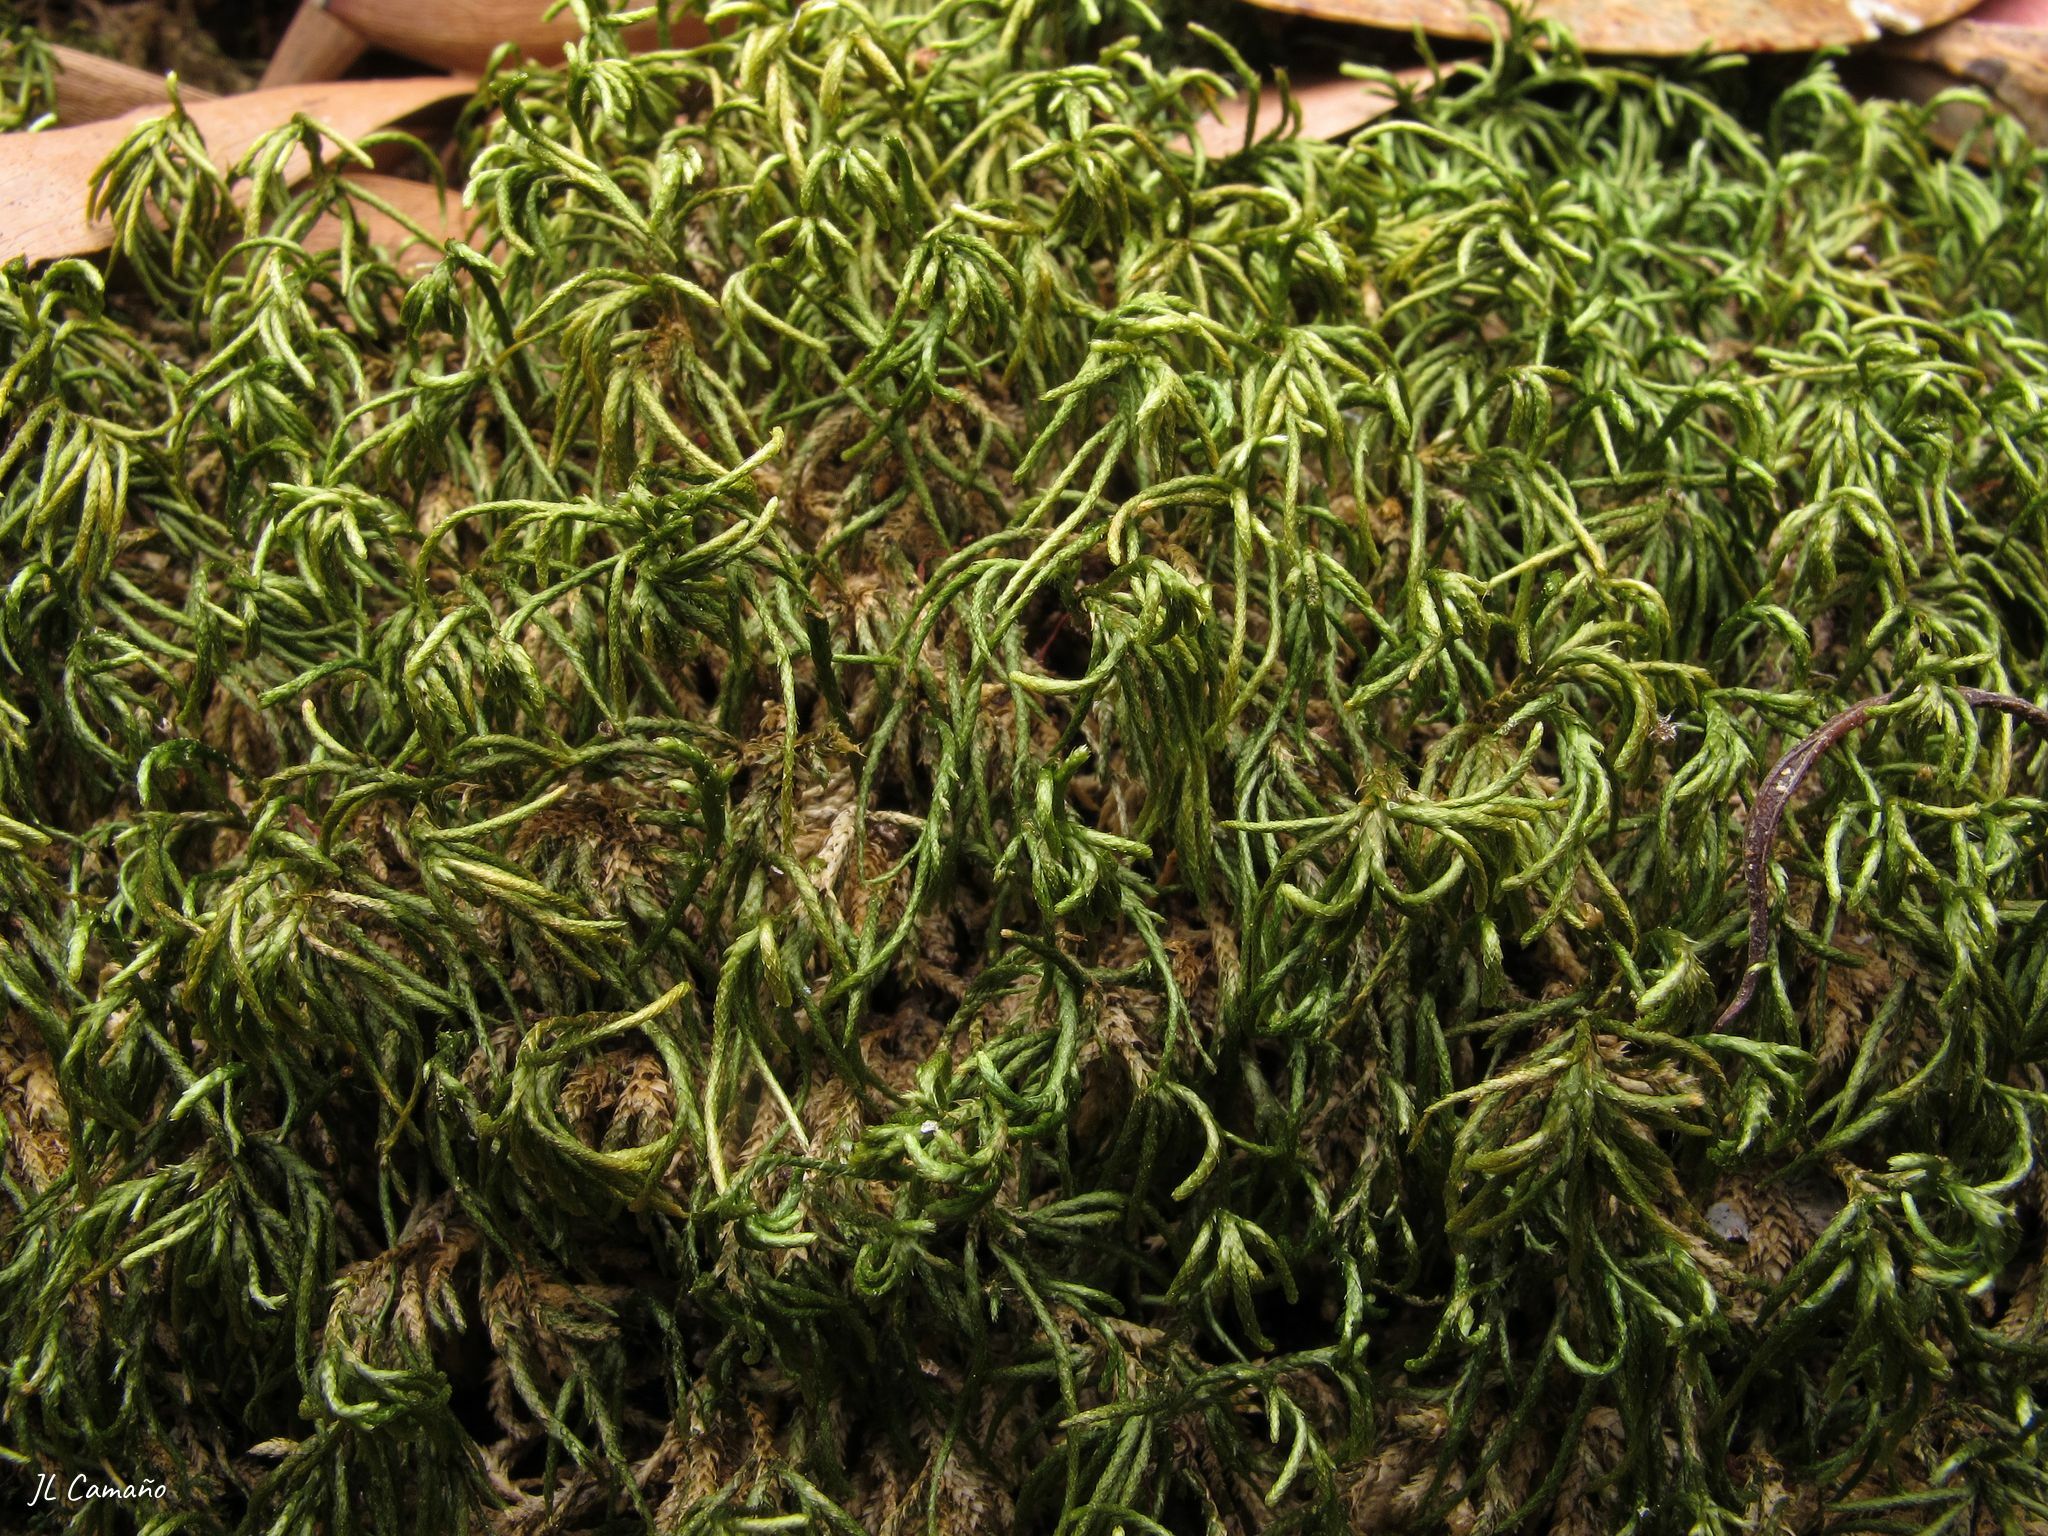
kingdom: Plantae
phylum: Bryophyta
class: Bryopsida
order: Hypnales
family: Lembophyllaceae
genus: Nogopterium
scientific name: Nogopterium gracile
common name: Bird's-foot wing-moss
